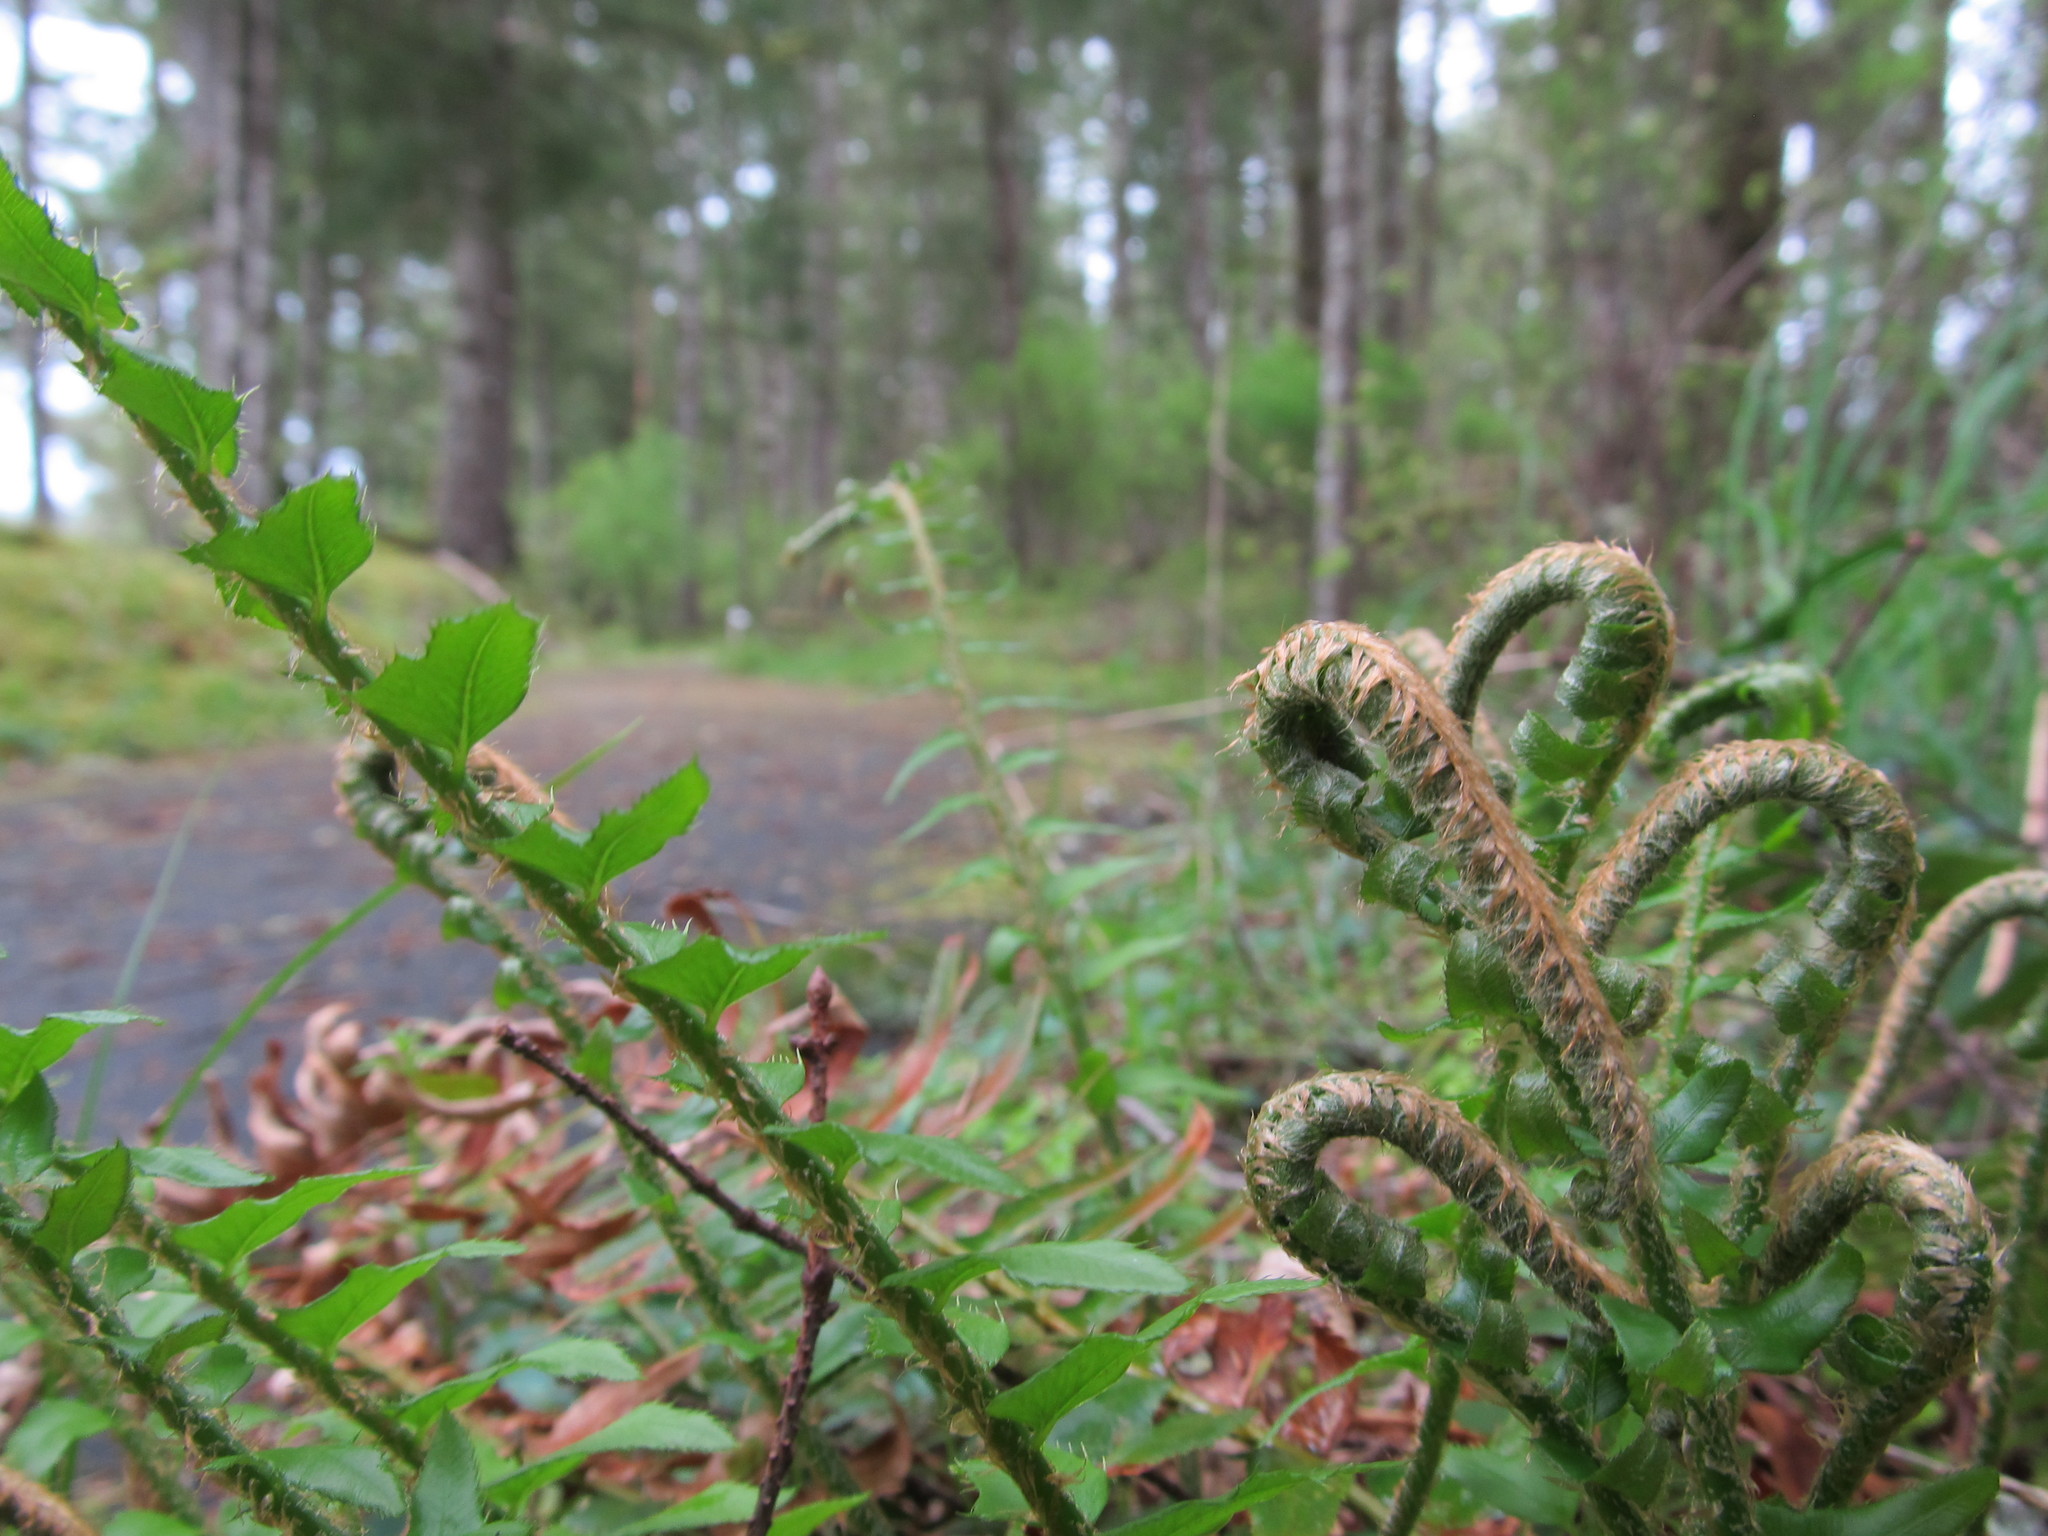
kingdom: Plantae
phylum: Tracheophyta
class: Polypodiopsida
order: Polypodiales
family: Dryopteridaceae
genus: Polystichum
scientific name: Polystichum munitum
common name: Western sword-fern
